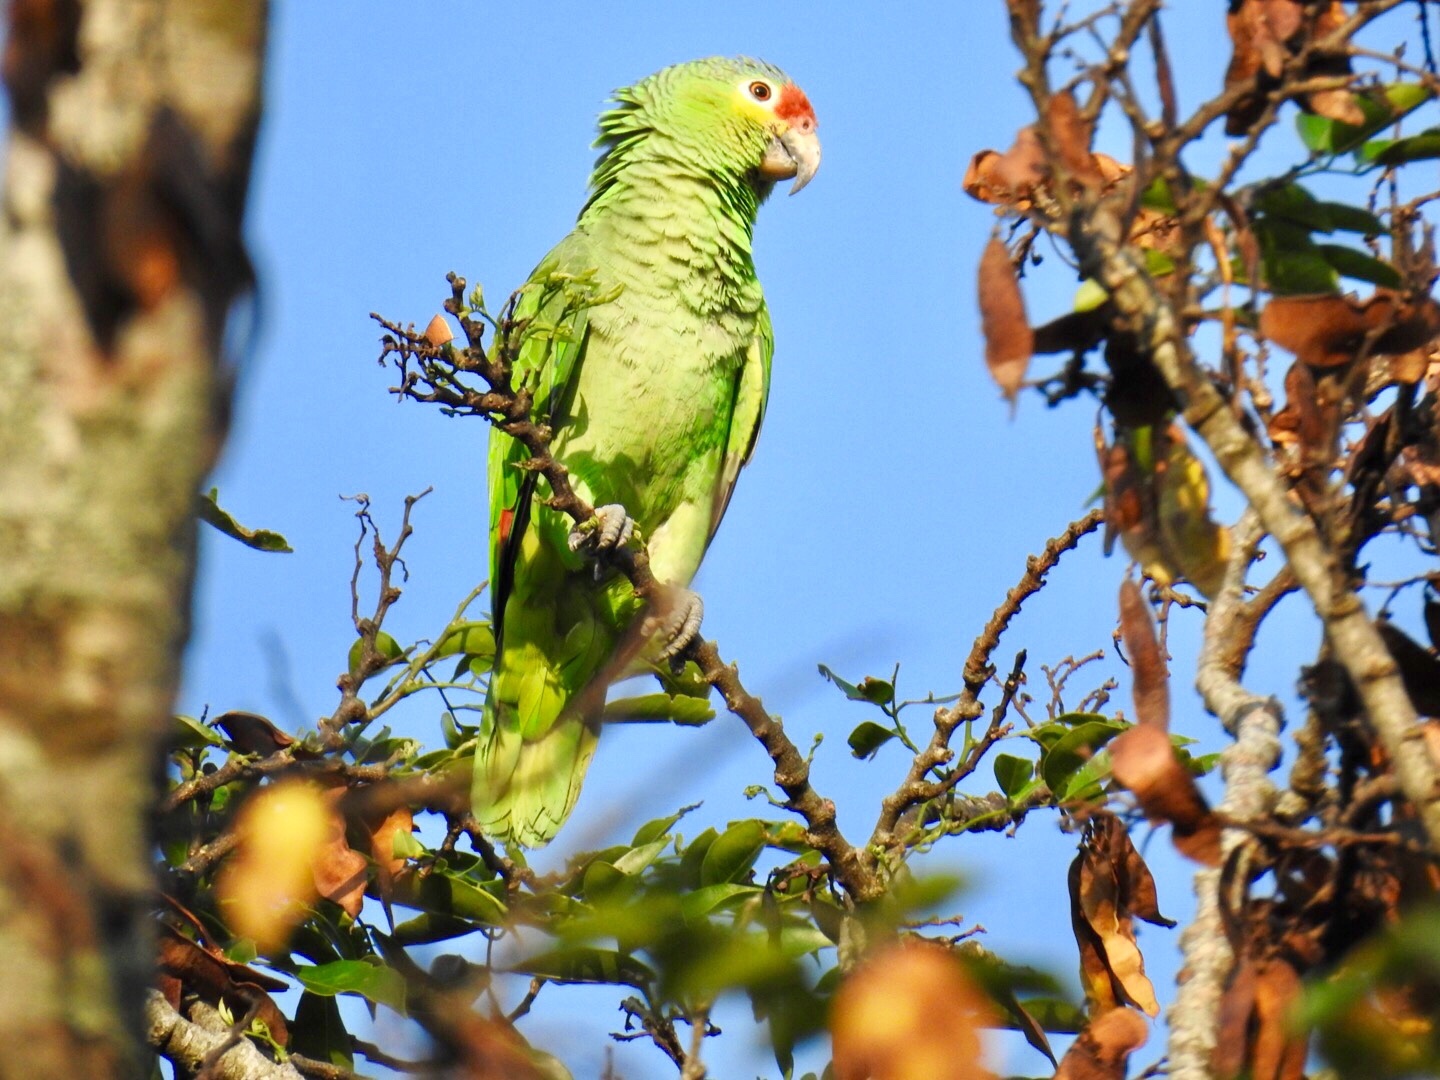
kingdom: Animalia
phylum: Chordata
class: Aves
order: Psittaciformes
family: Psittacidae
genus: Amazona
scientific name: Amazona autumnalis
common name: Red-lored amazon
